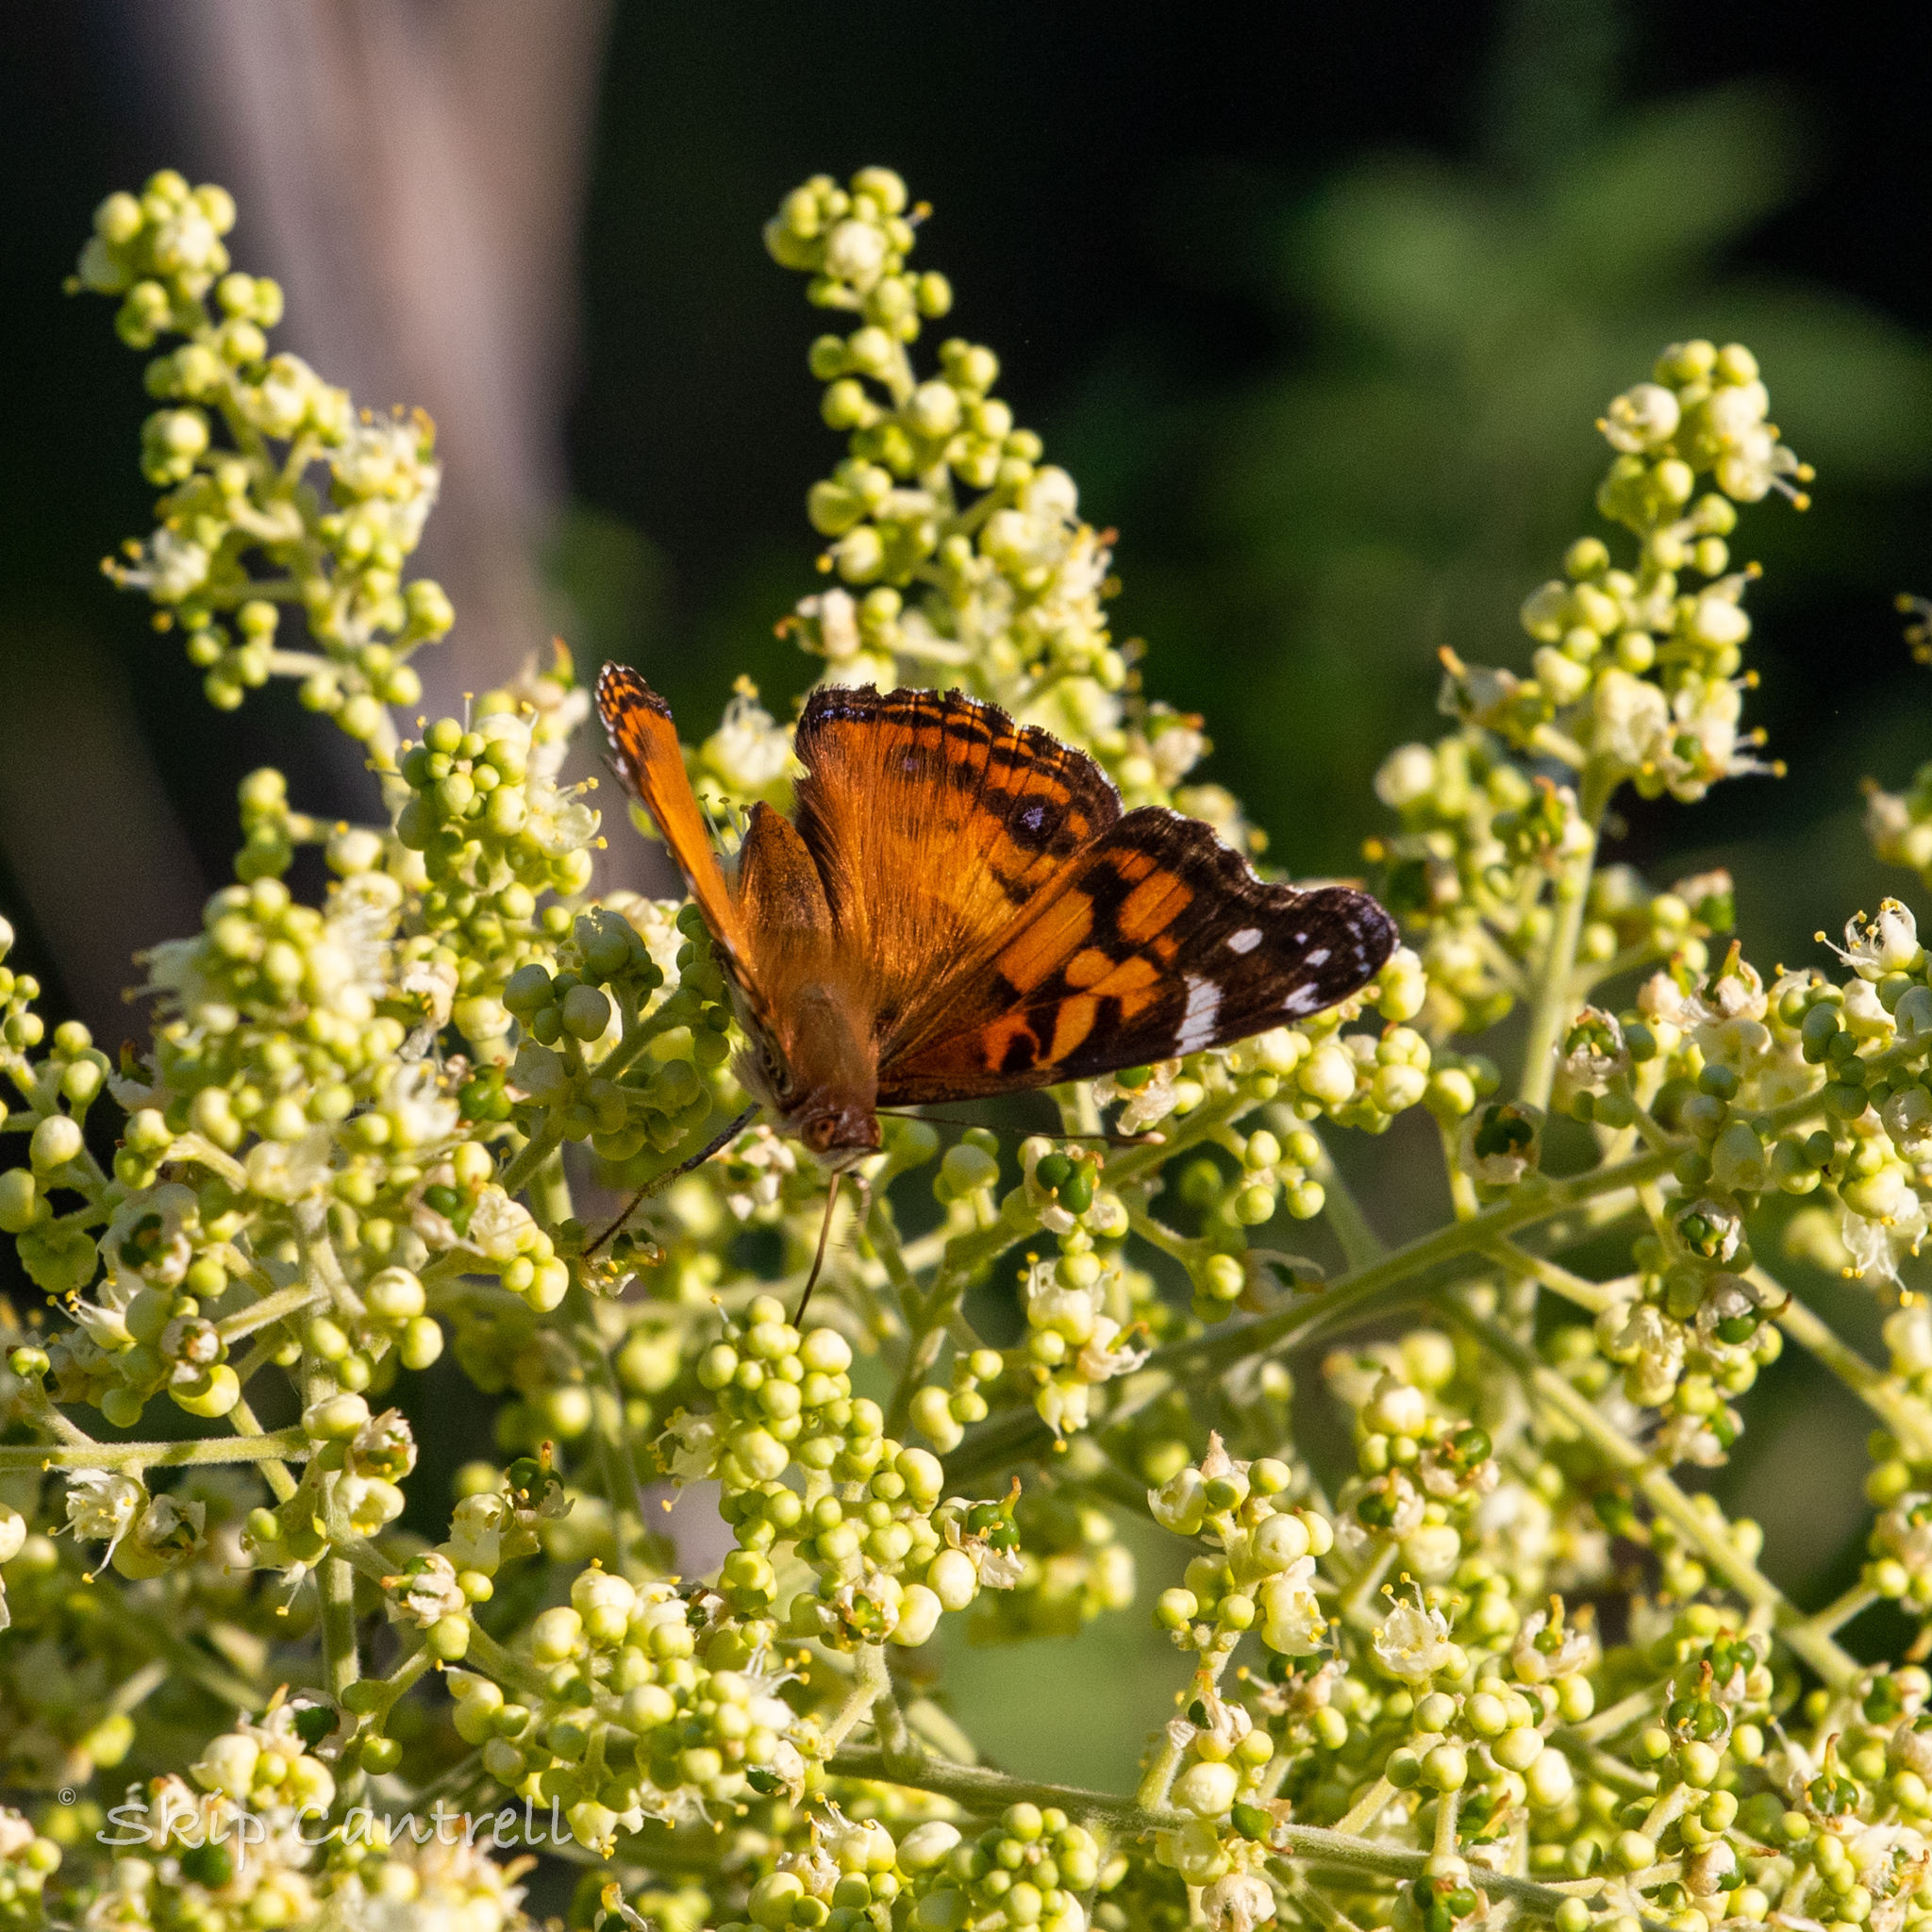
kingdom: Animalia
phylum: Arthropoda
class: Insecta
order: Lepidoptera
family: Nymphalidae
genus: Vanessa
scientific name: Vanessa virginiensis
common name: American lady
